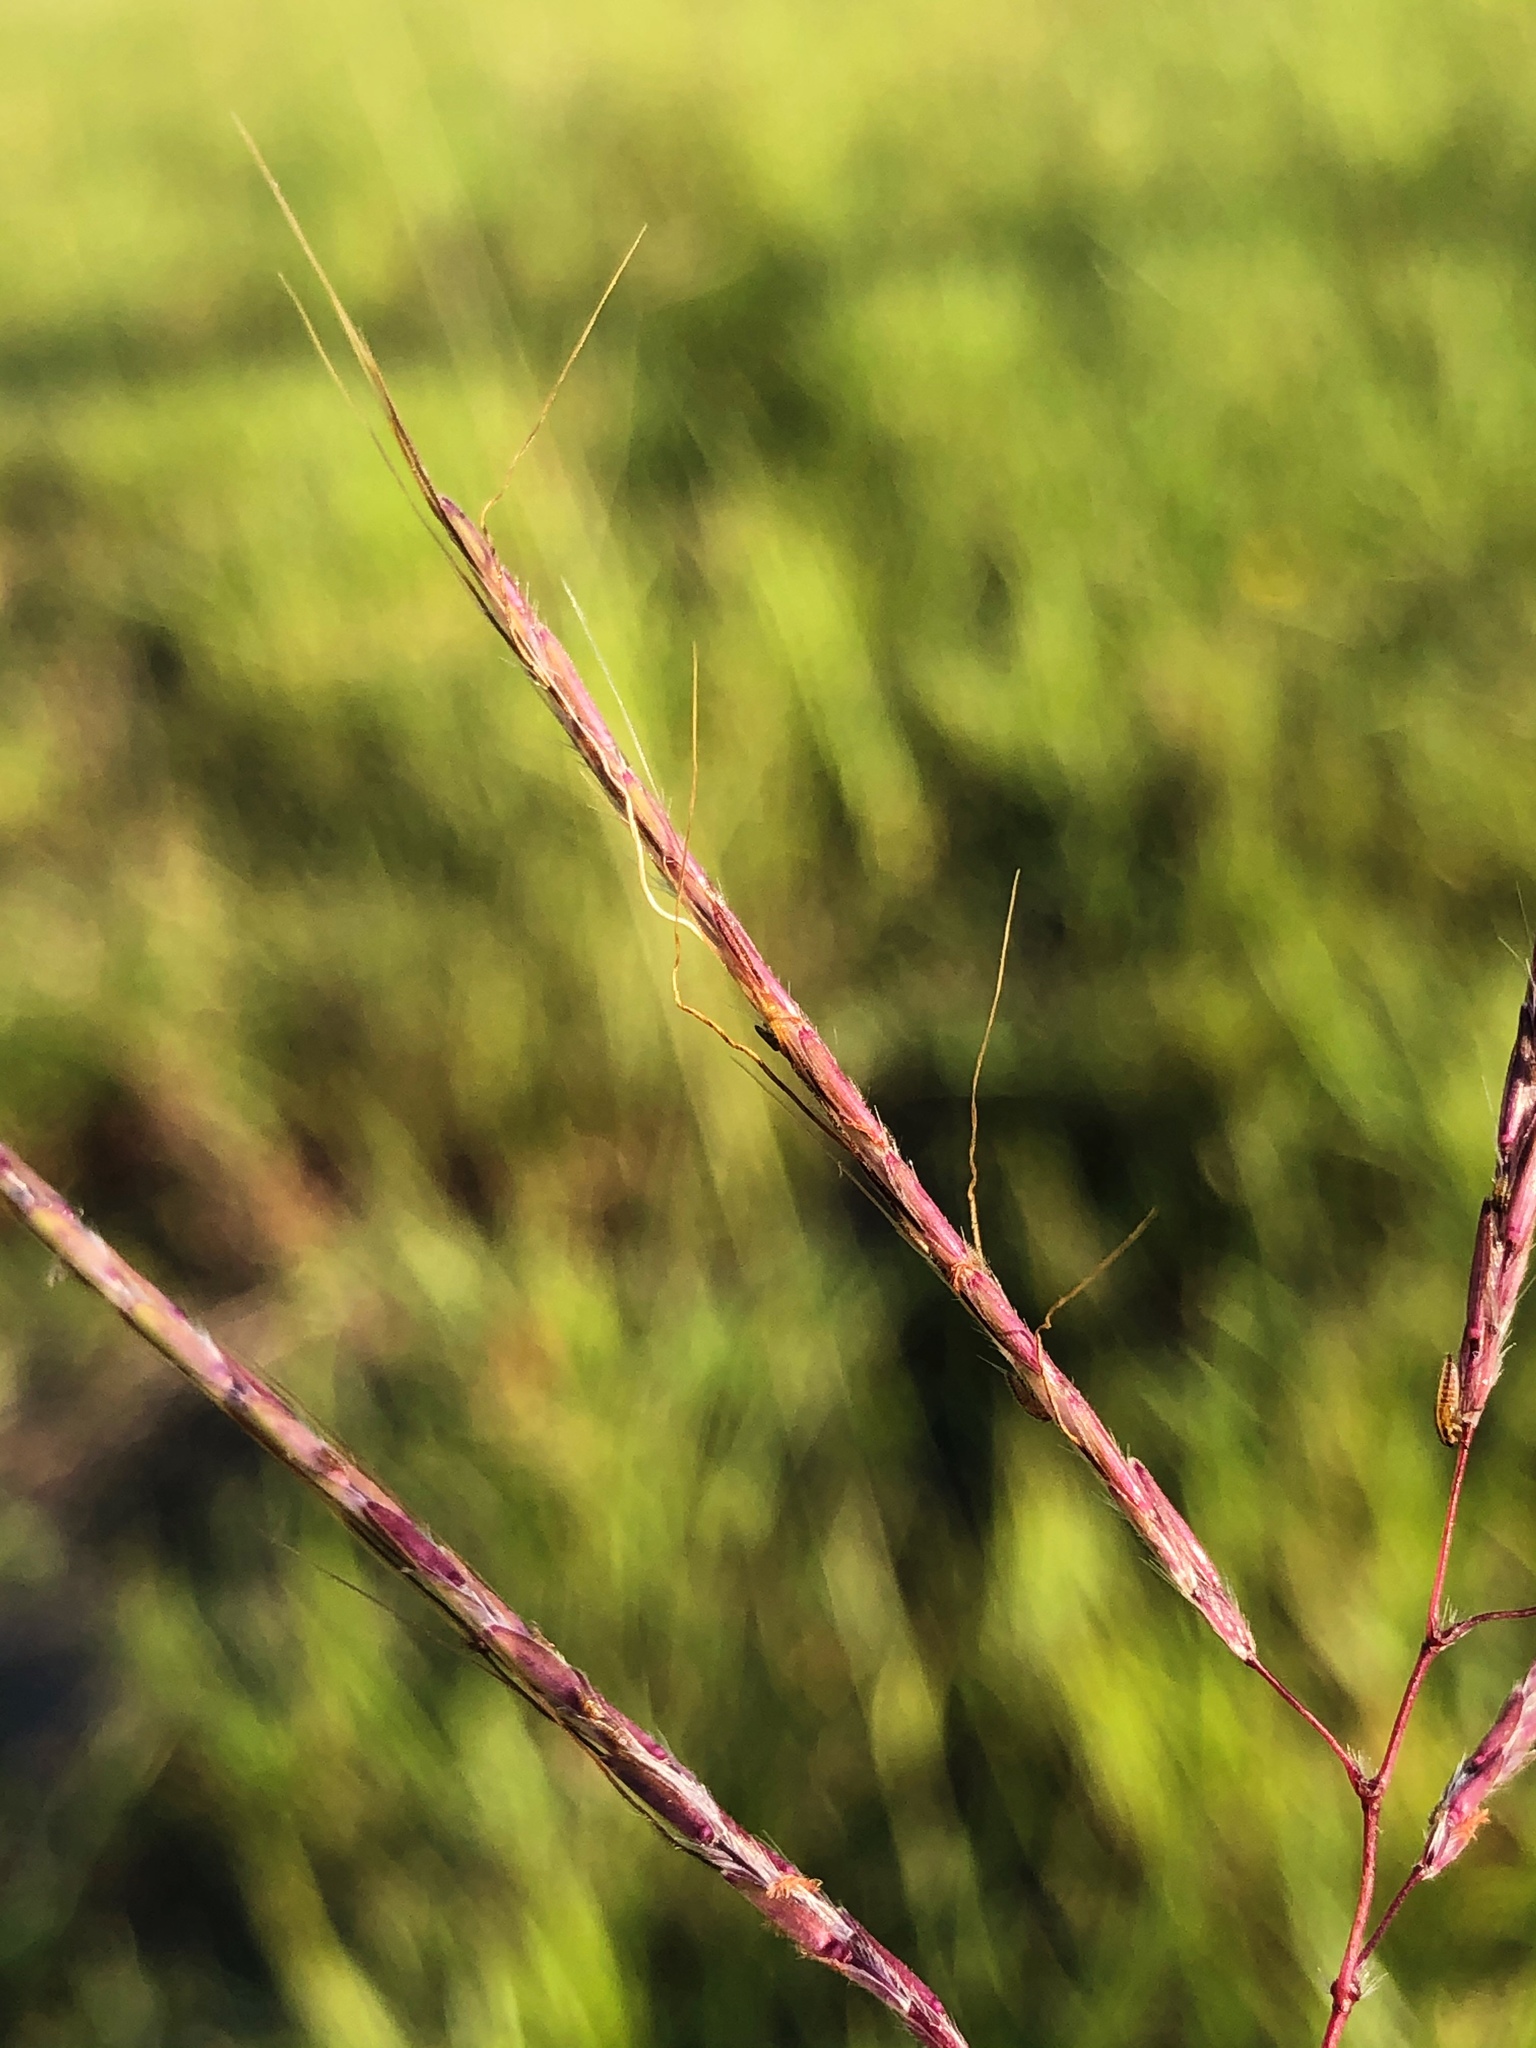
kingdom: Plantae
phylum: Tracheophyta
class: Liliopsida
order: Poales
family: Poaceae
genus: Bothriochloa
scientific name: Bothriochloa ischaemum
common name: Yellow bluestem
